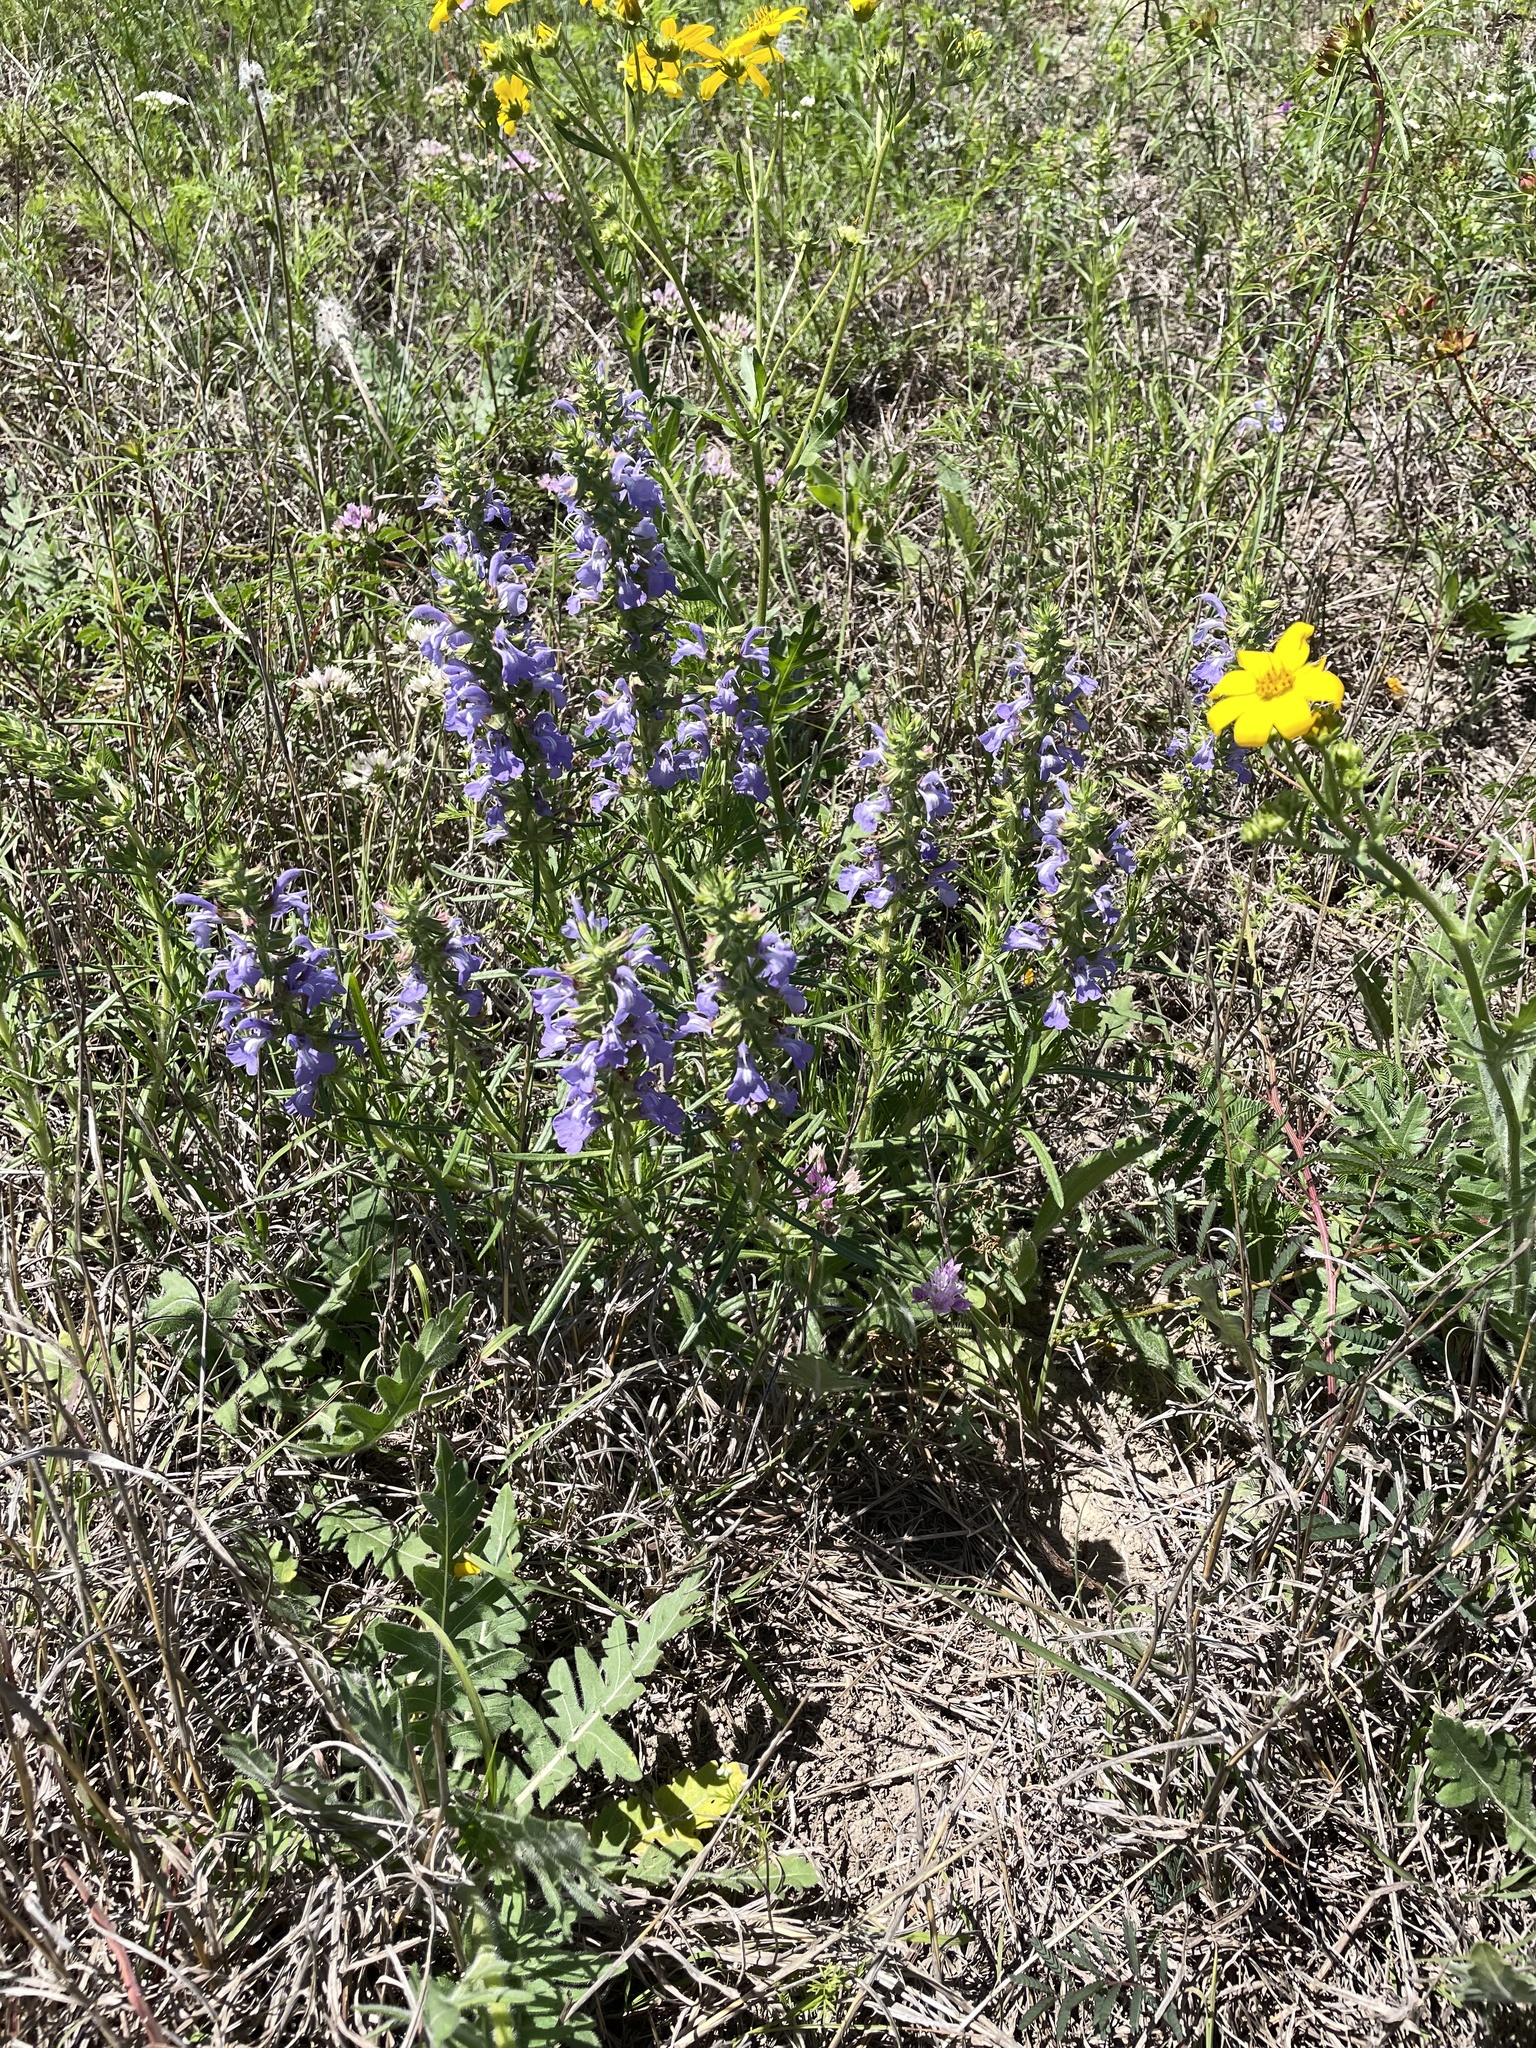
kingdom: Plantae
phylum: Tracheophyta
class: Magnoliopsida
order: Lamiales
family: Lamiaceae
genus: Salvia
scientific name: Salvia engelmannii
